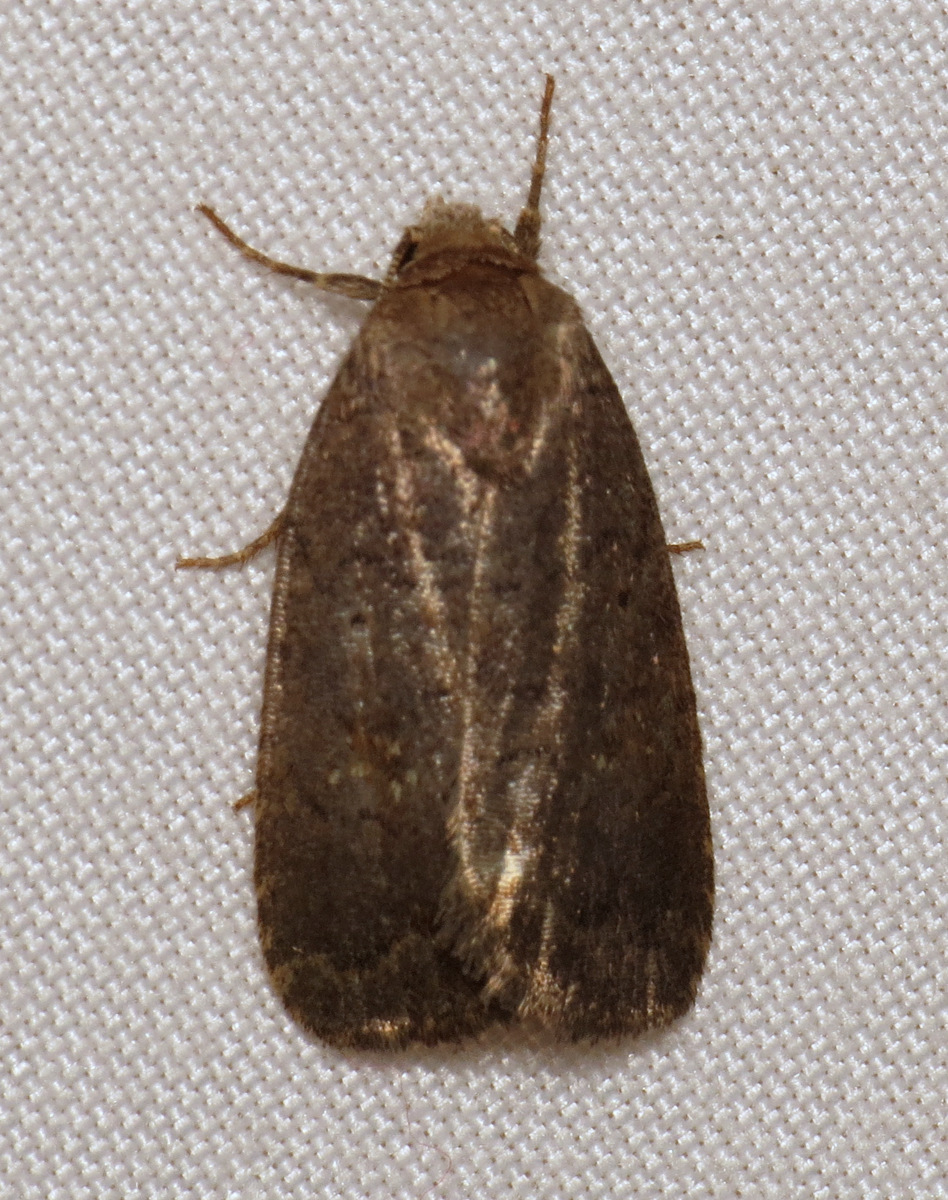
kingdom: Animalia
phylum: Arthropoda
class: Insecta
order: Lepidoptera
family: Noctuidae
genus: Athetis
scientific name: Athetis tarda
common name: Slowpoke moth
